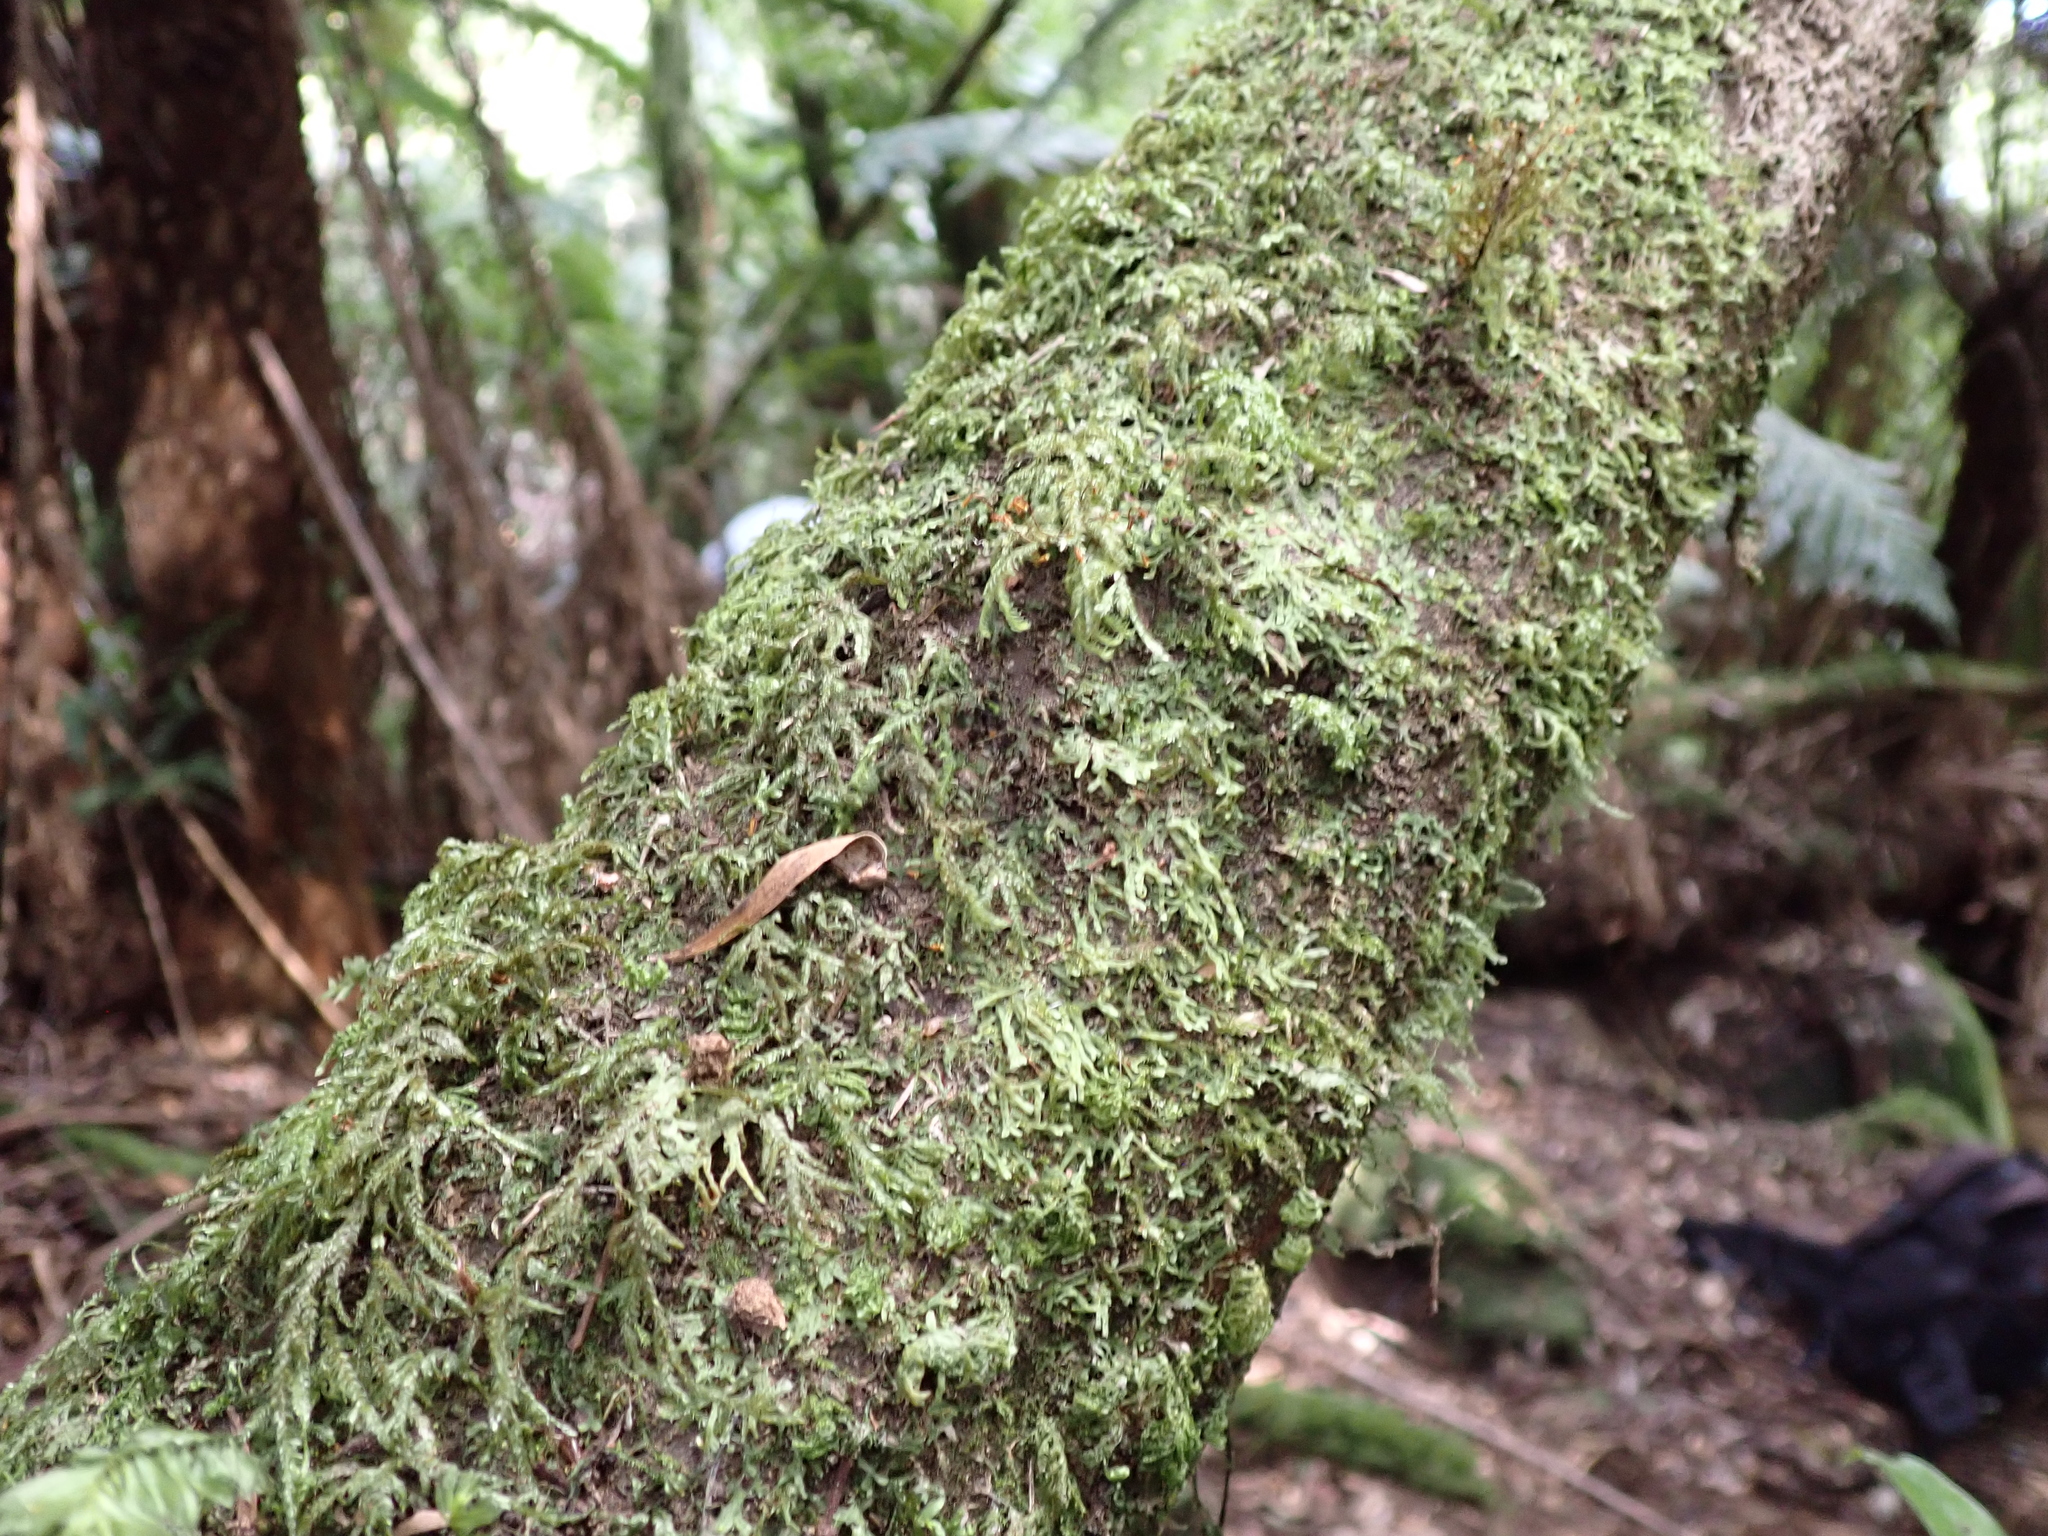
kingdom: Plantae
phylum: Bryophyta
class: Bryopsida
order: Hypopterygiales
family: Hypopterygiaceae
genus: Lopidium
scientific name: Lopidium concinnum
